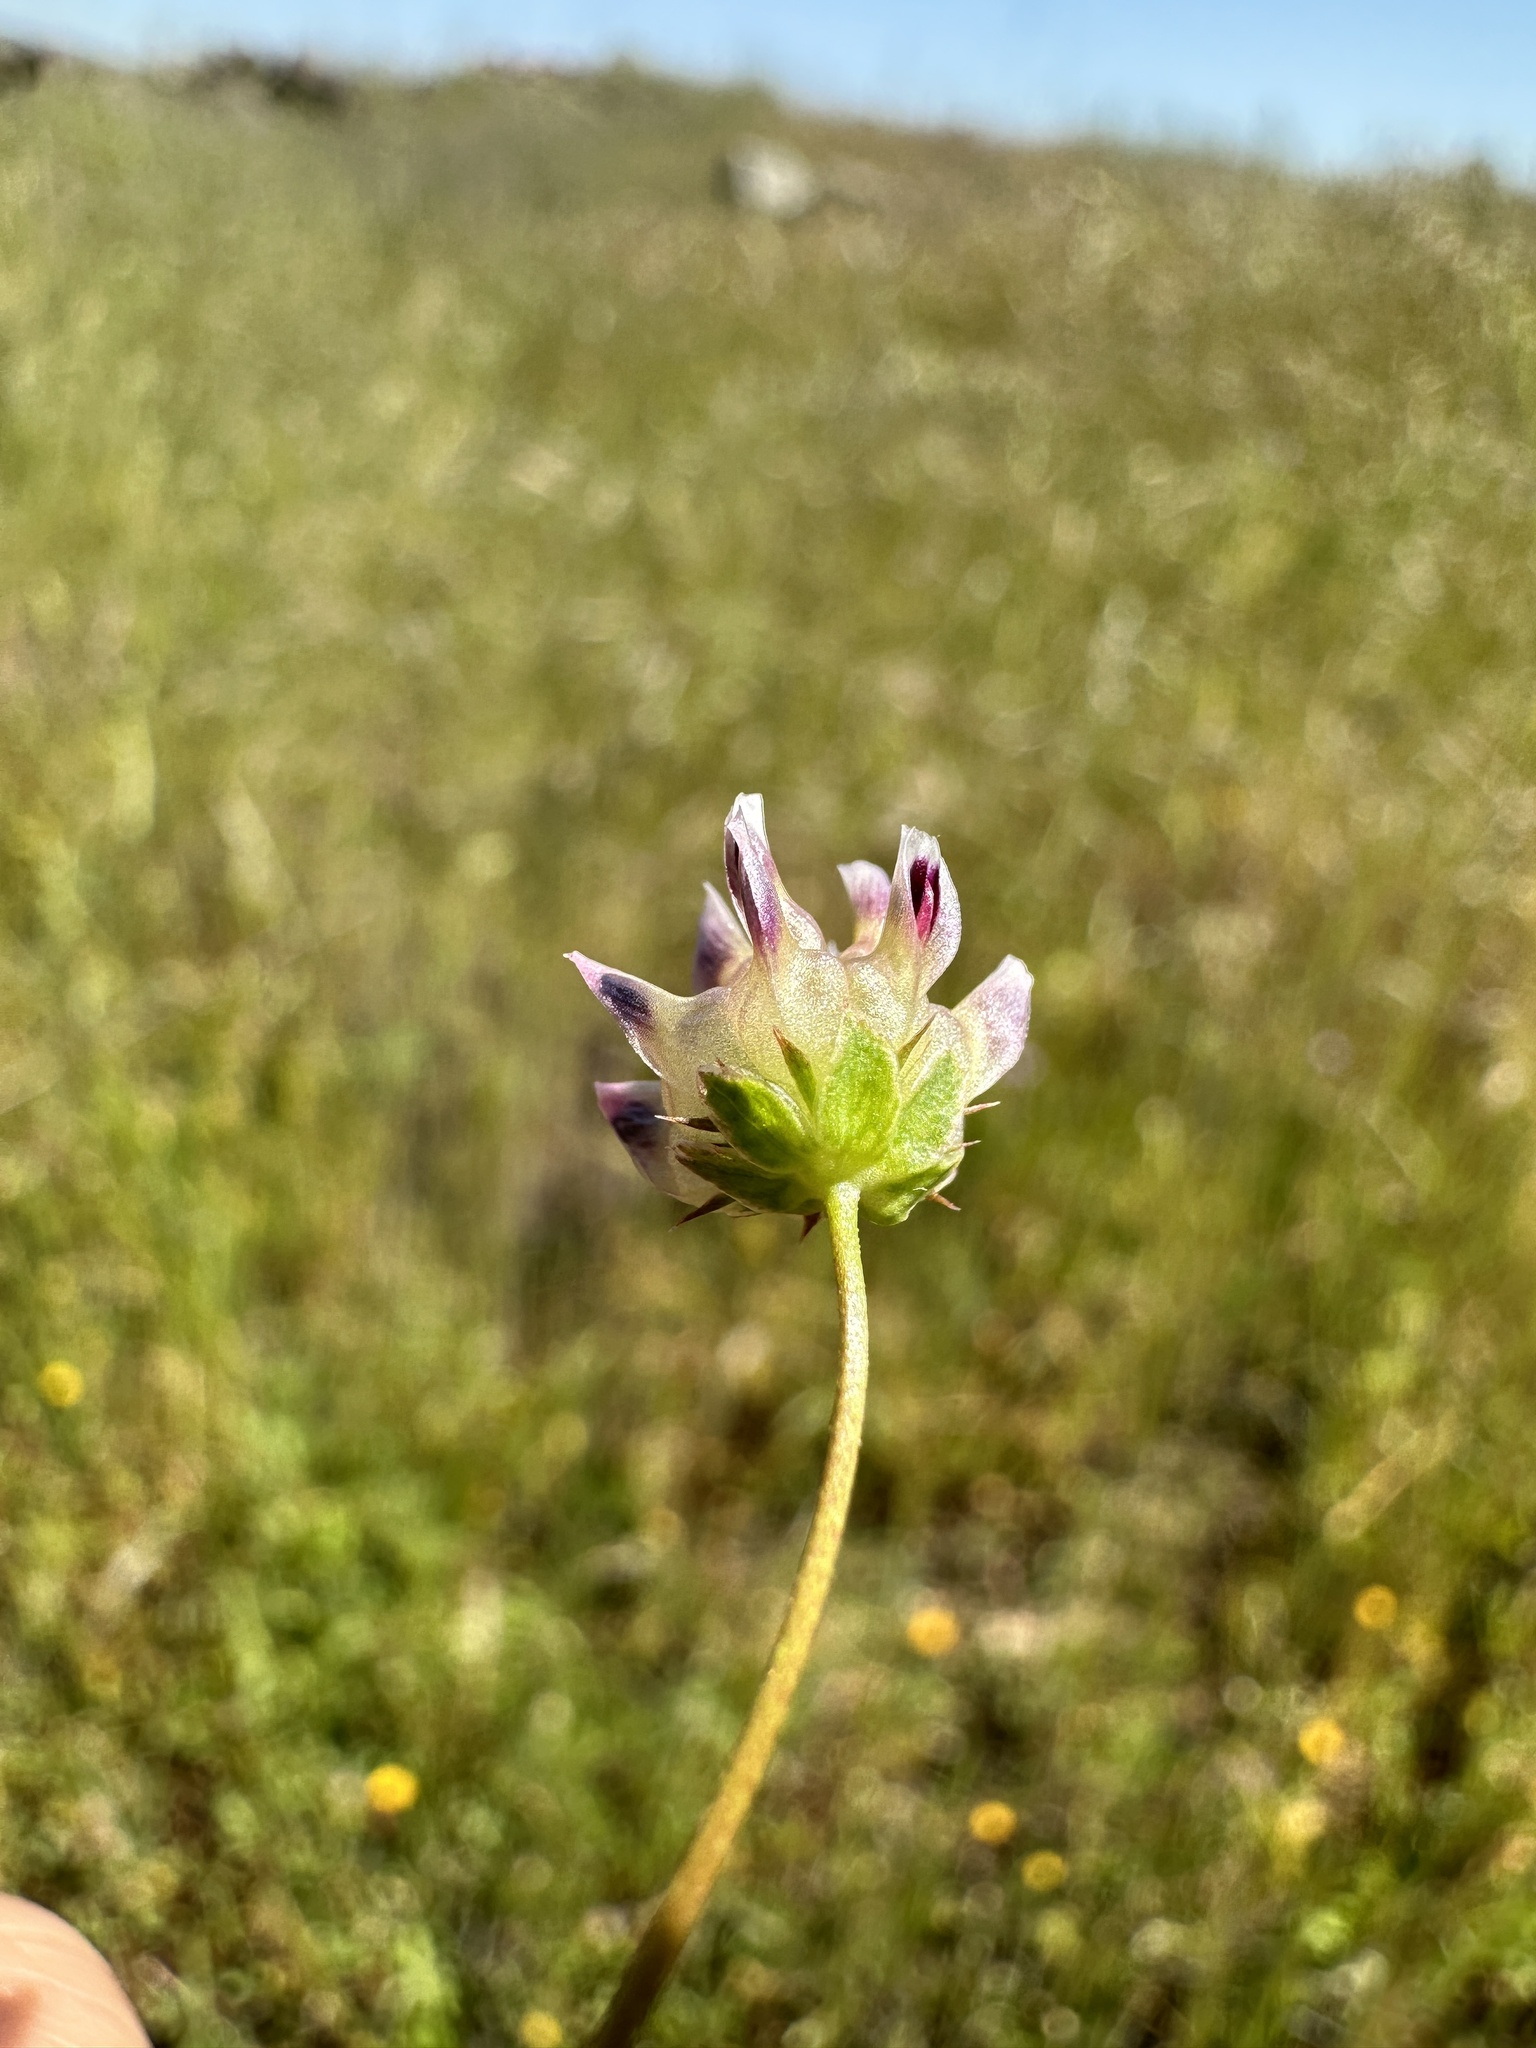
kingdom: Plantae
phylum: Tracheophyta
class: Magnoliopsida
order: Fabales
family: Fabaceae
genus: Trifolium
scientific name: Trifolium depauperatum
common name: Poverty clover
